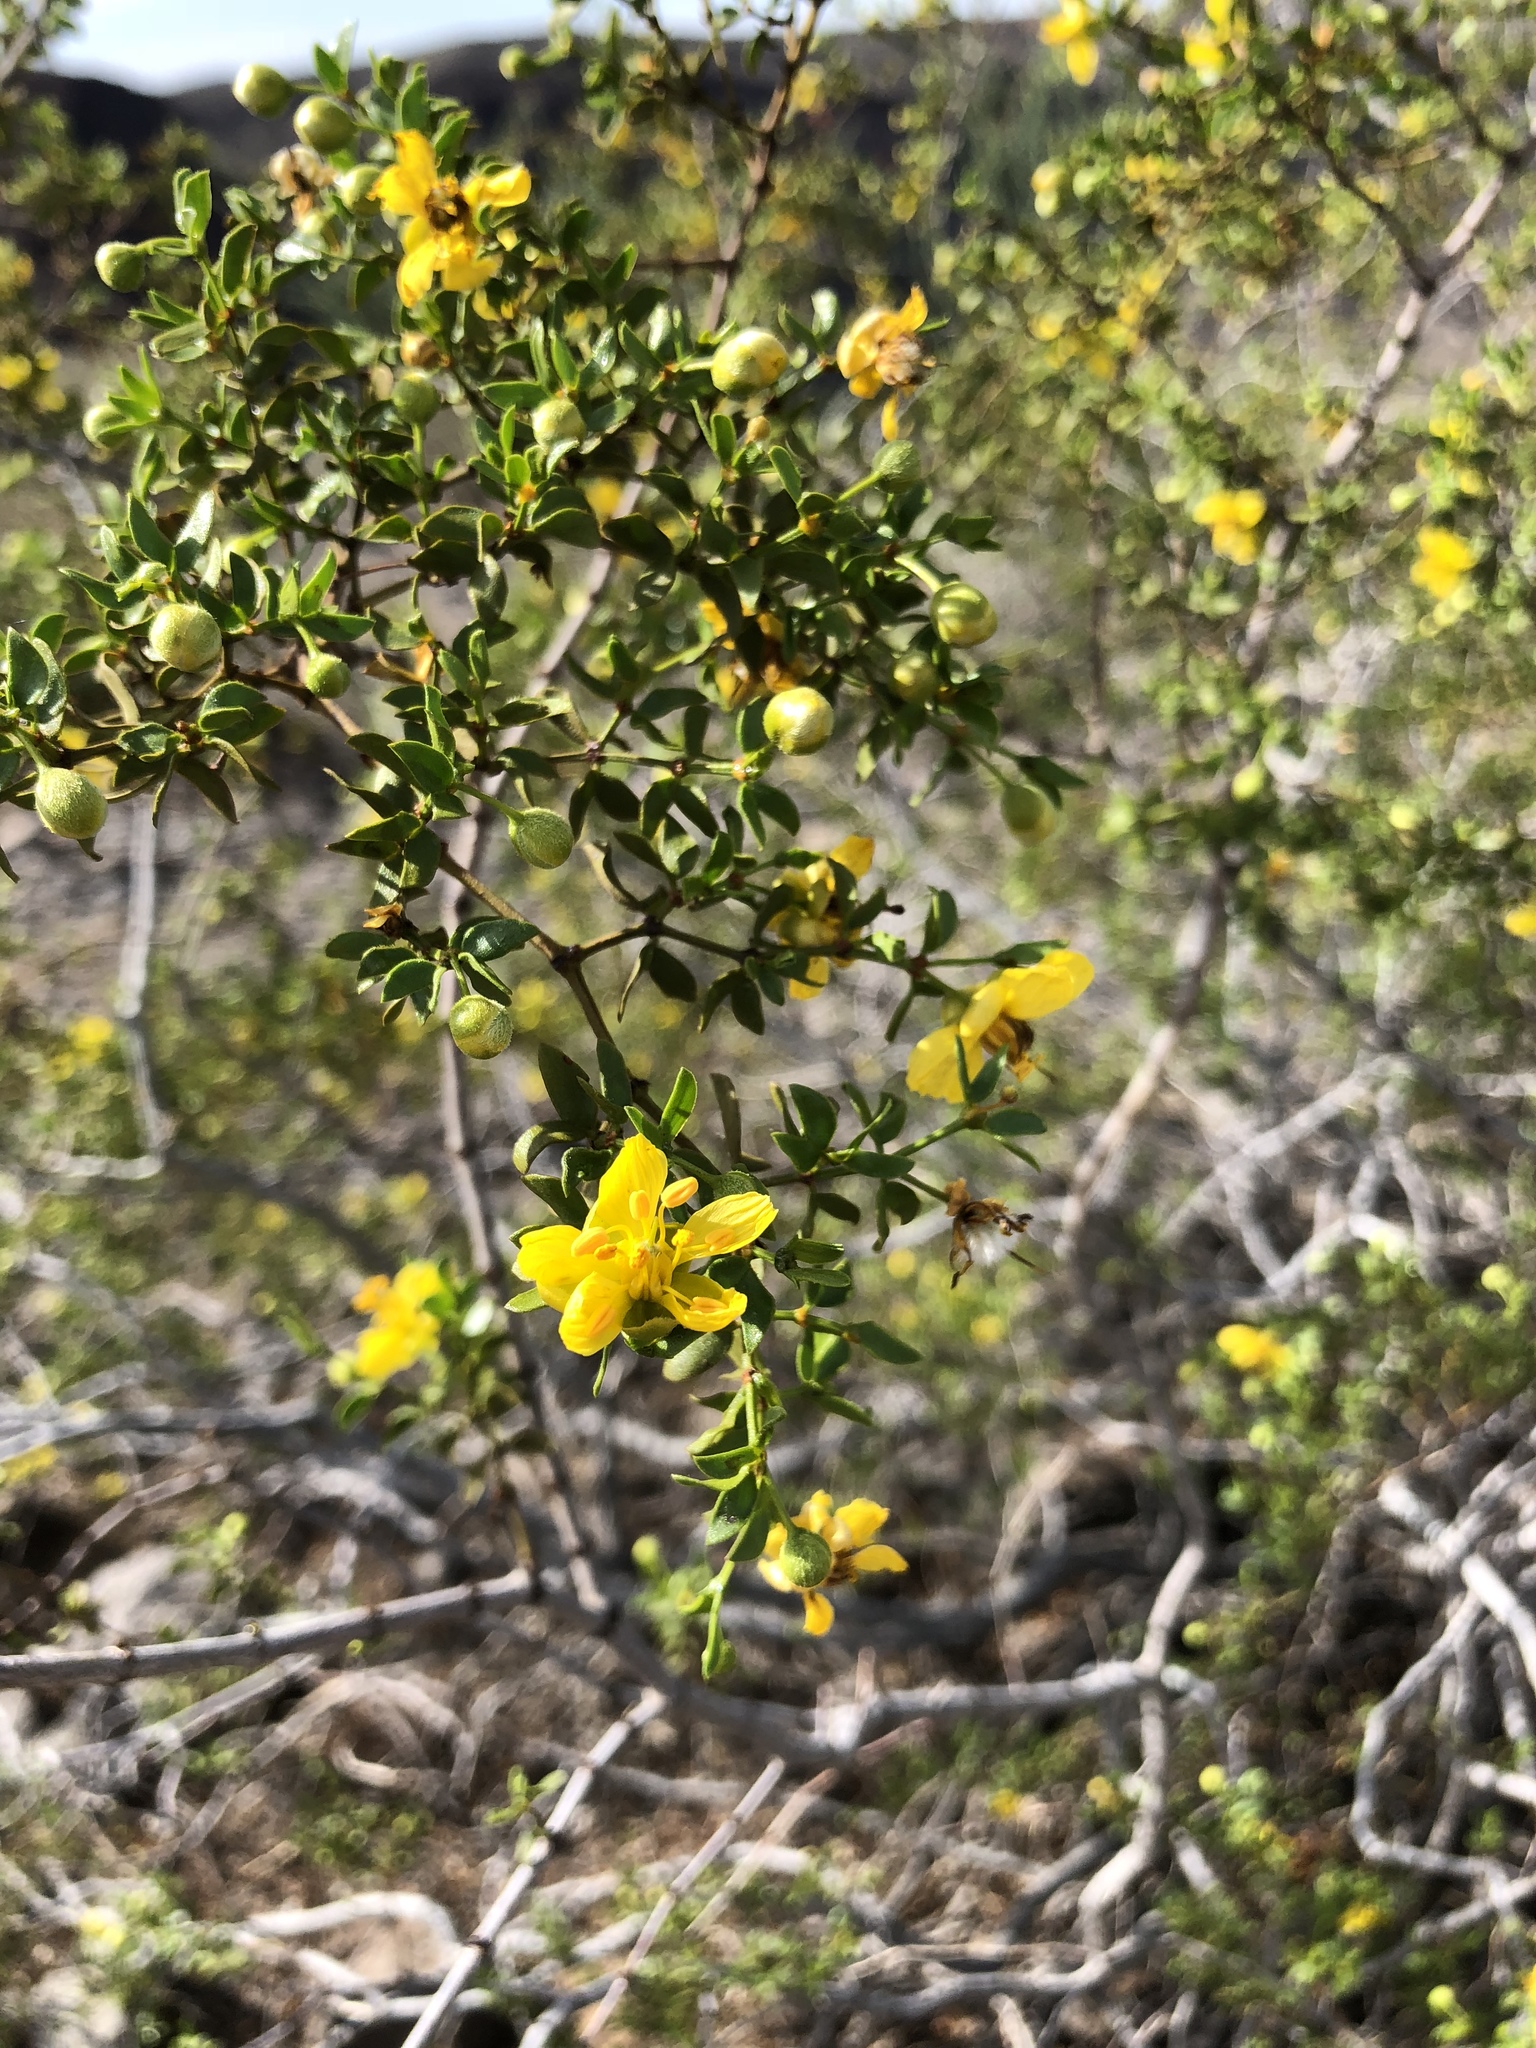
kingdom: Plantae
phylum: Tracheophyta
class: Magnoliopsida
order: Zygophyllales
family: Zygophyllaceae
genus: Larrea
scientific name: Larrea tridentata
